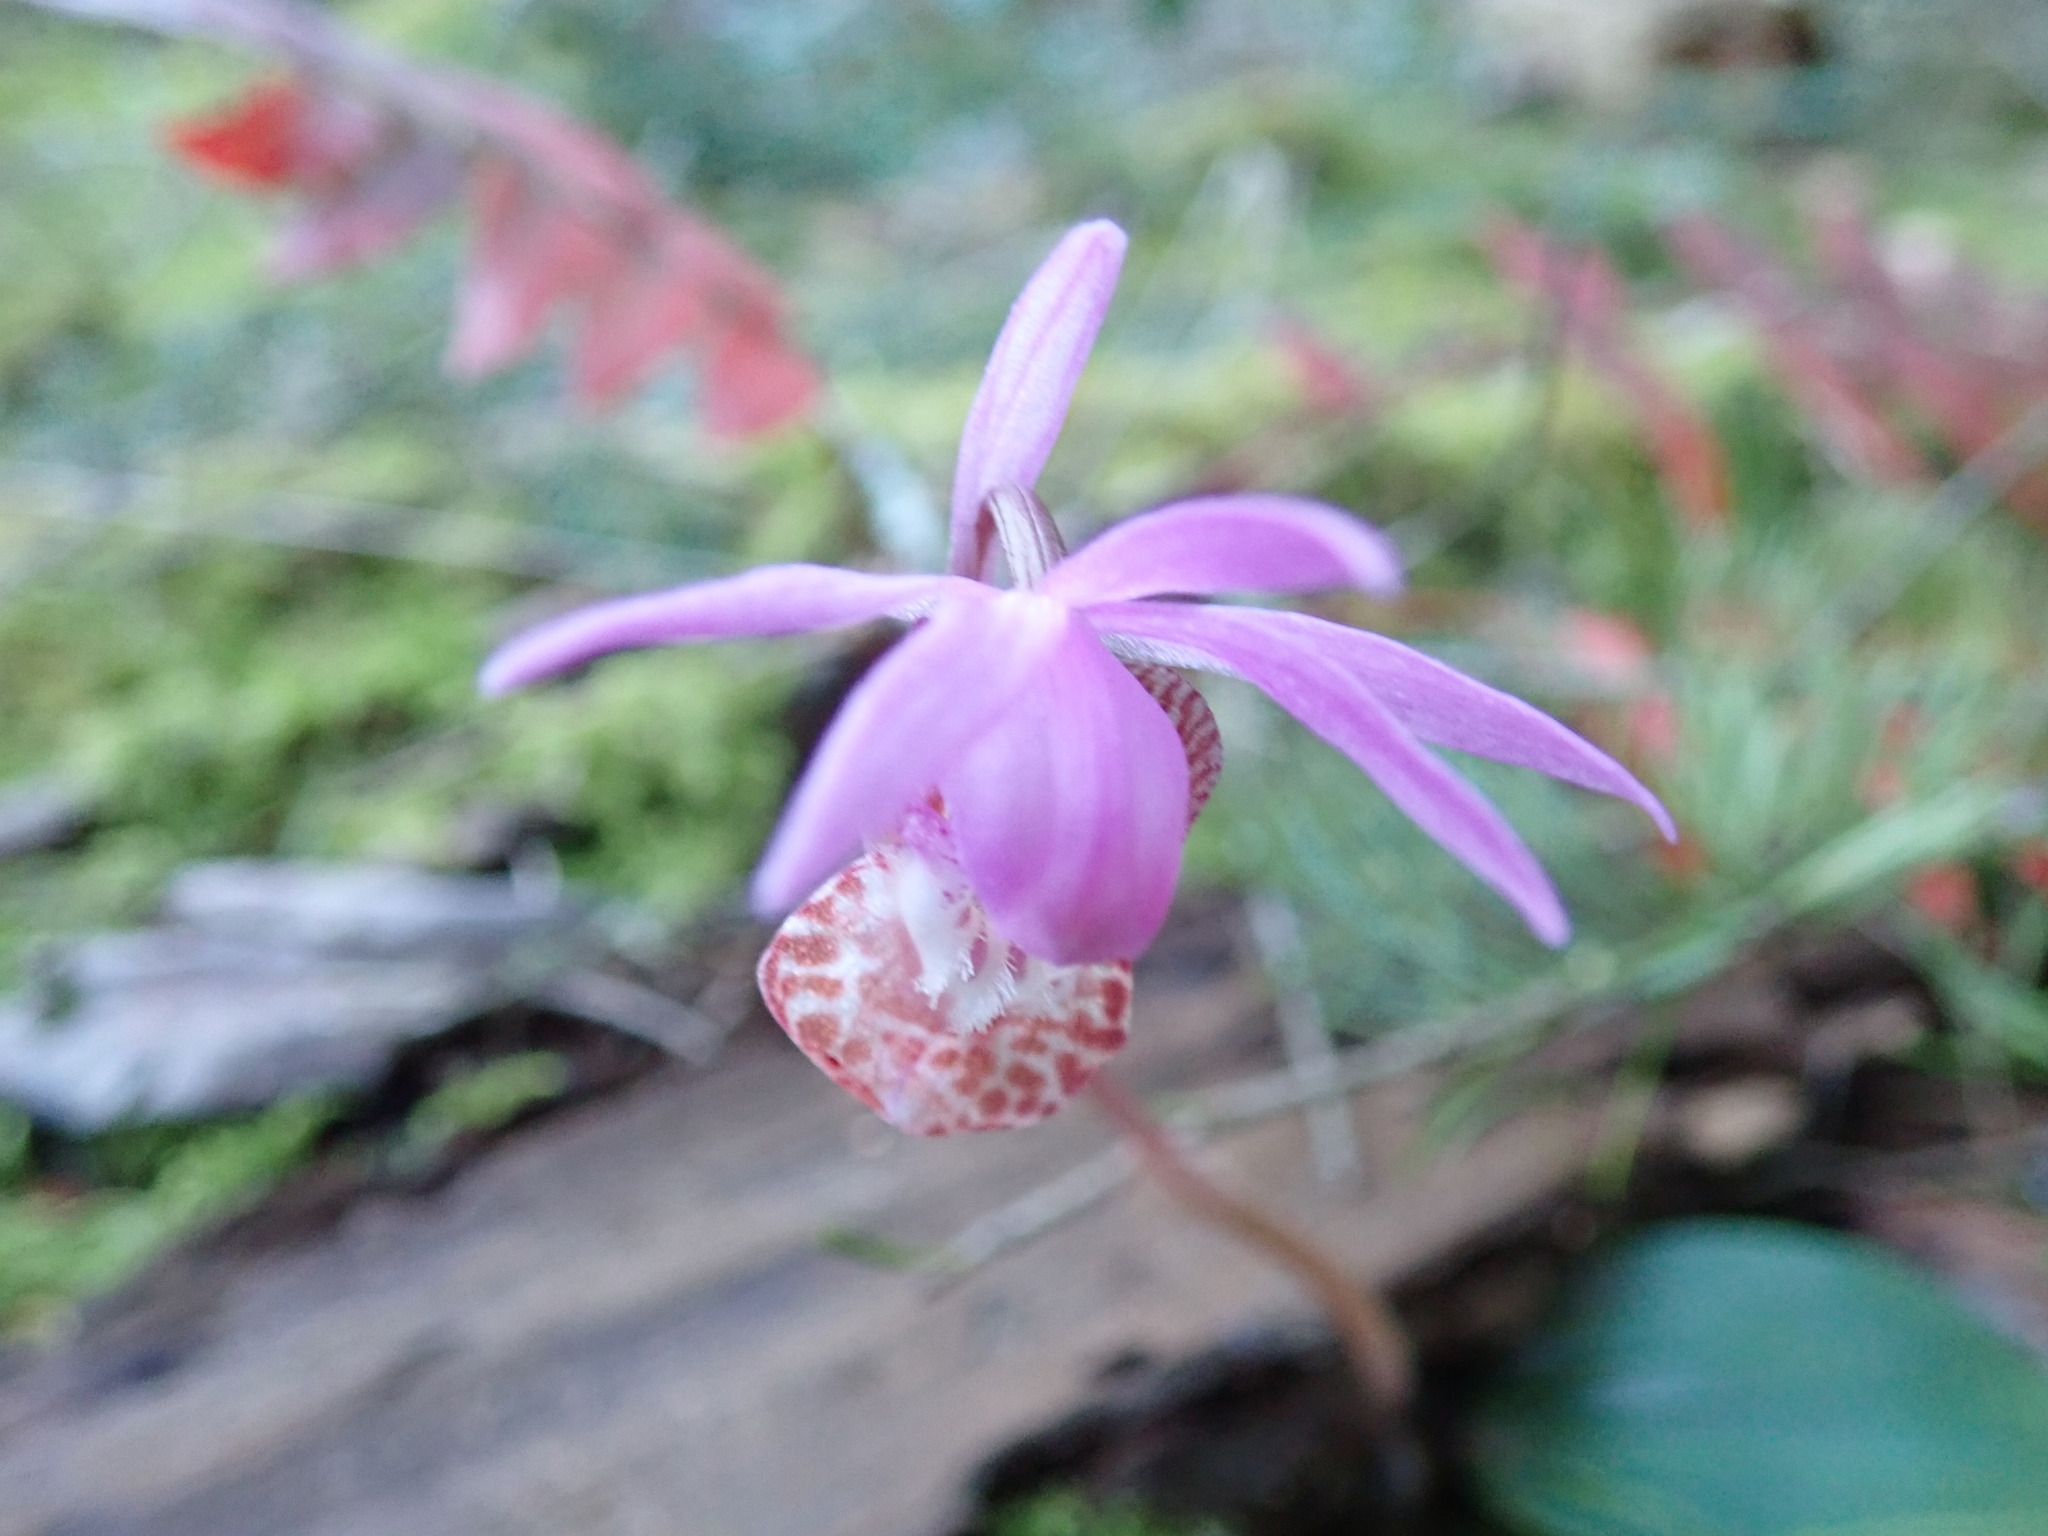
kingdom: Plantae
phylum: Tracheophyta
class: Liliopsida
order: Asparagales
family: Orchidaceae
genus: Calypso
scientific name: Calypso bulbosa
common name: Calypso
